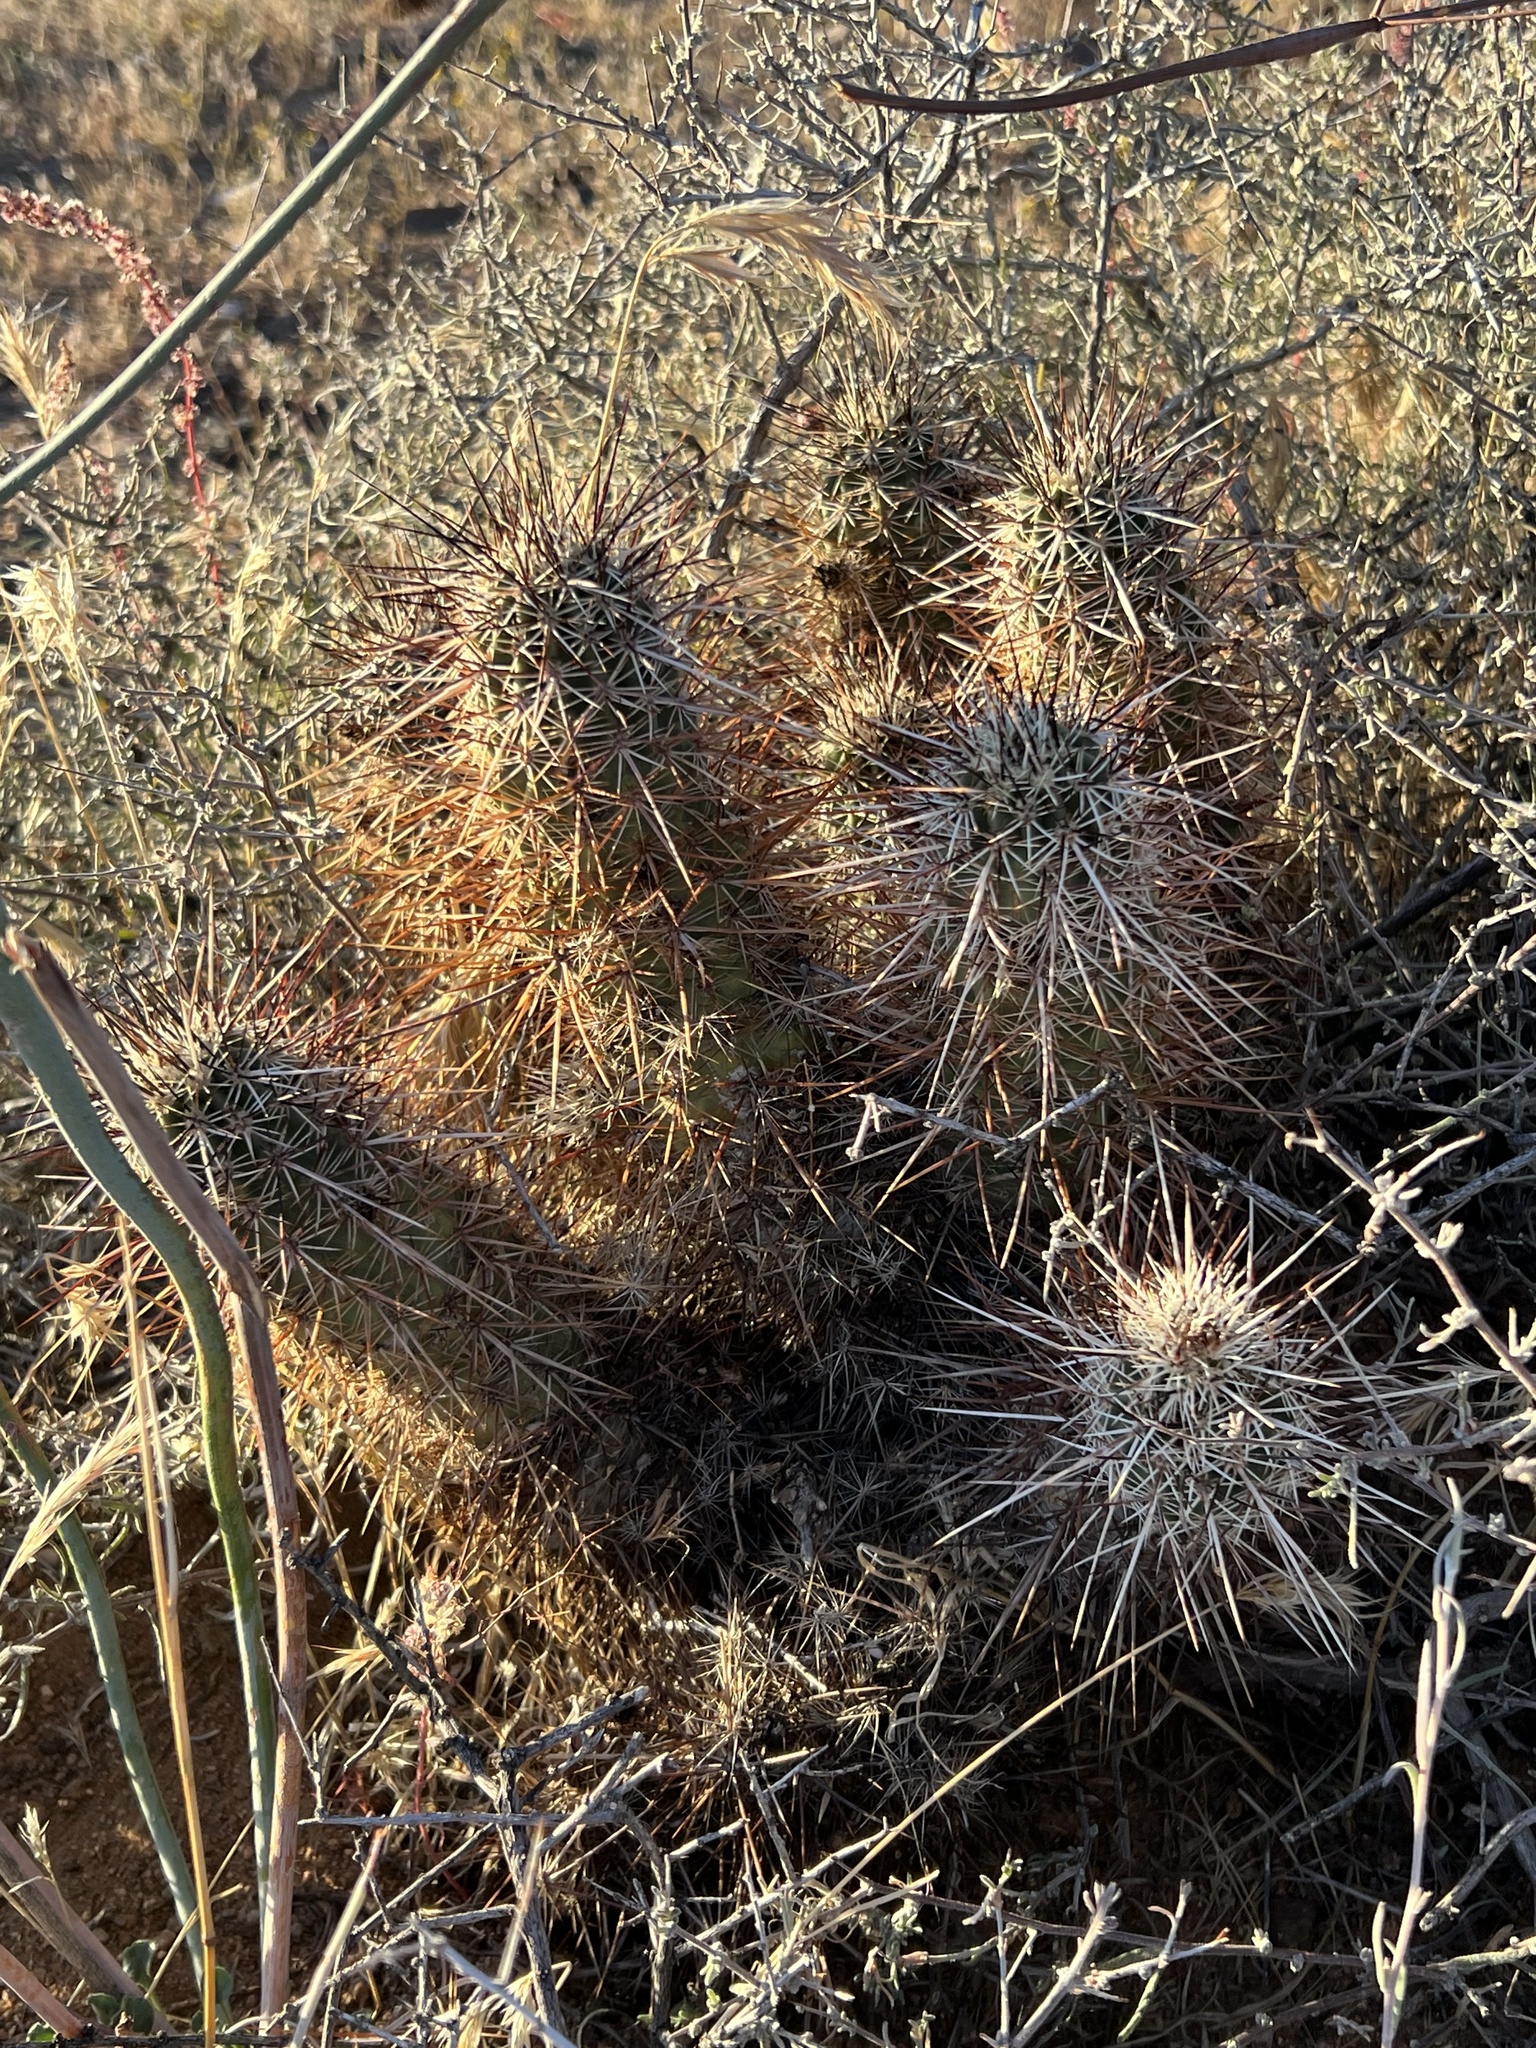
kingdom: Plantae
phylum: Tracheophyta
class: Magnoliopsida
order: Caryophyllales
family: Cactaceae
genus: Echinocereus
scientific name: Echinocereus engelmannii
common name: Engelmann's hedgehog cactus
